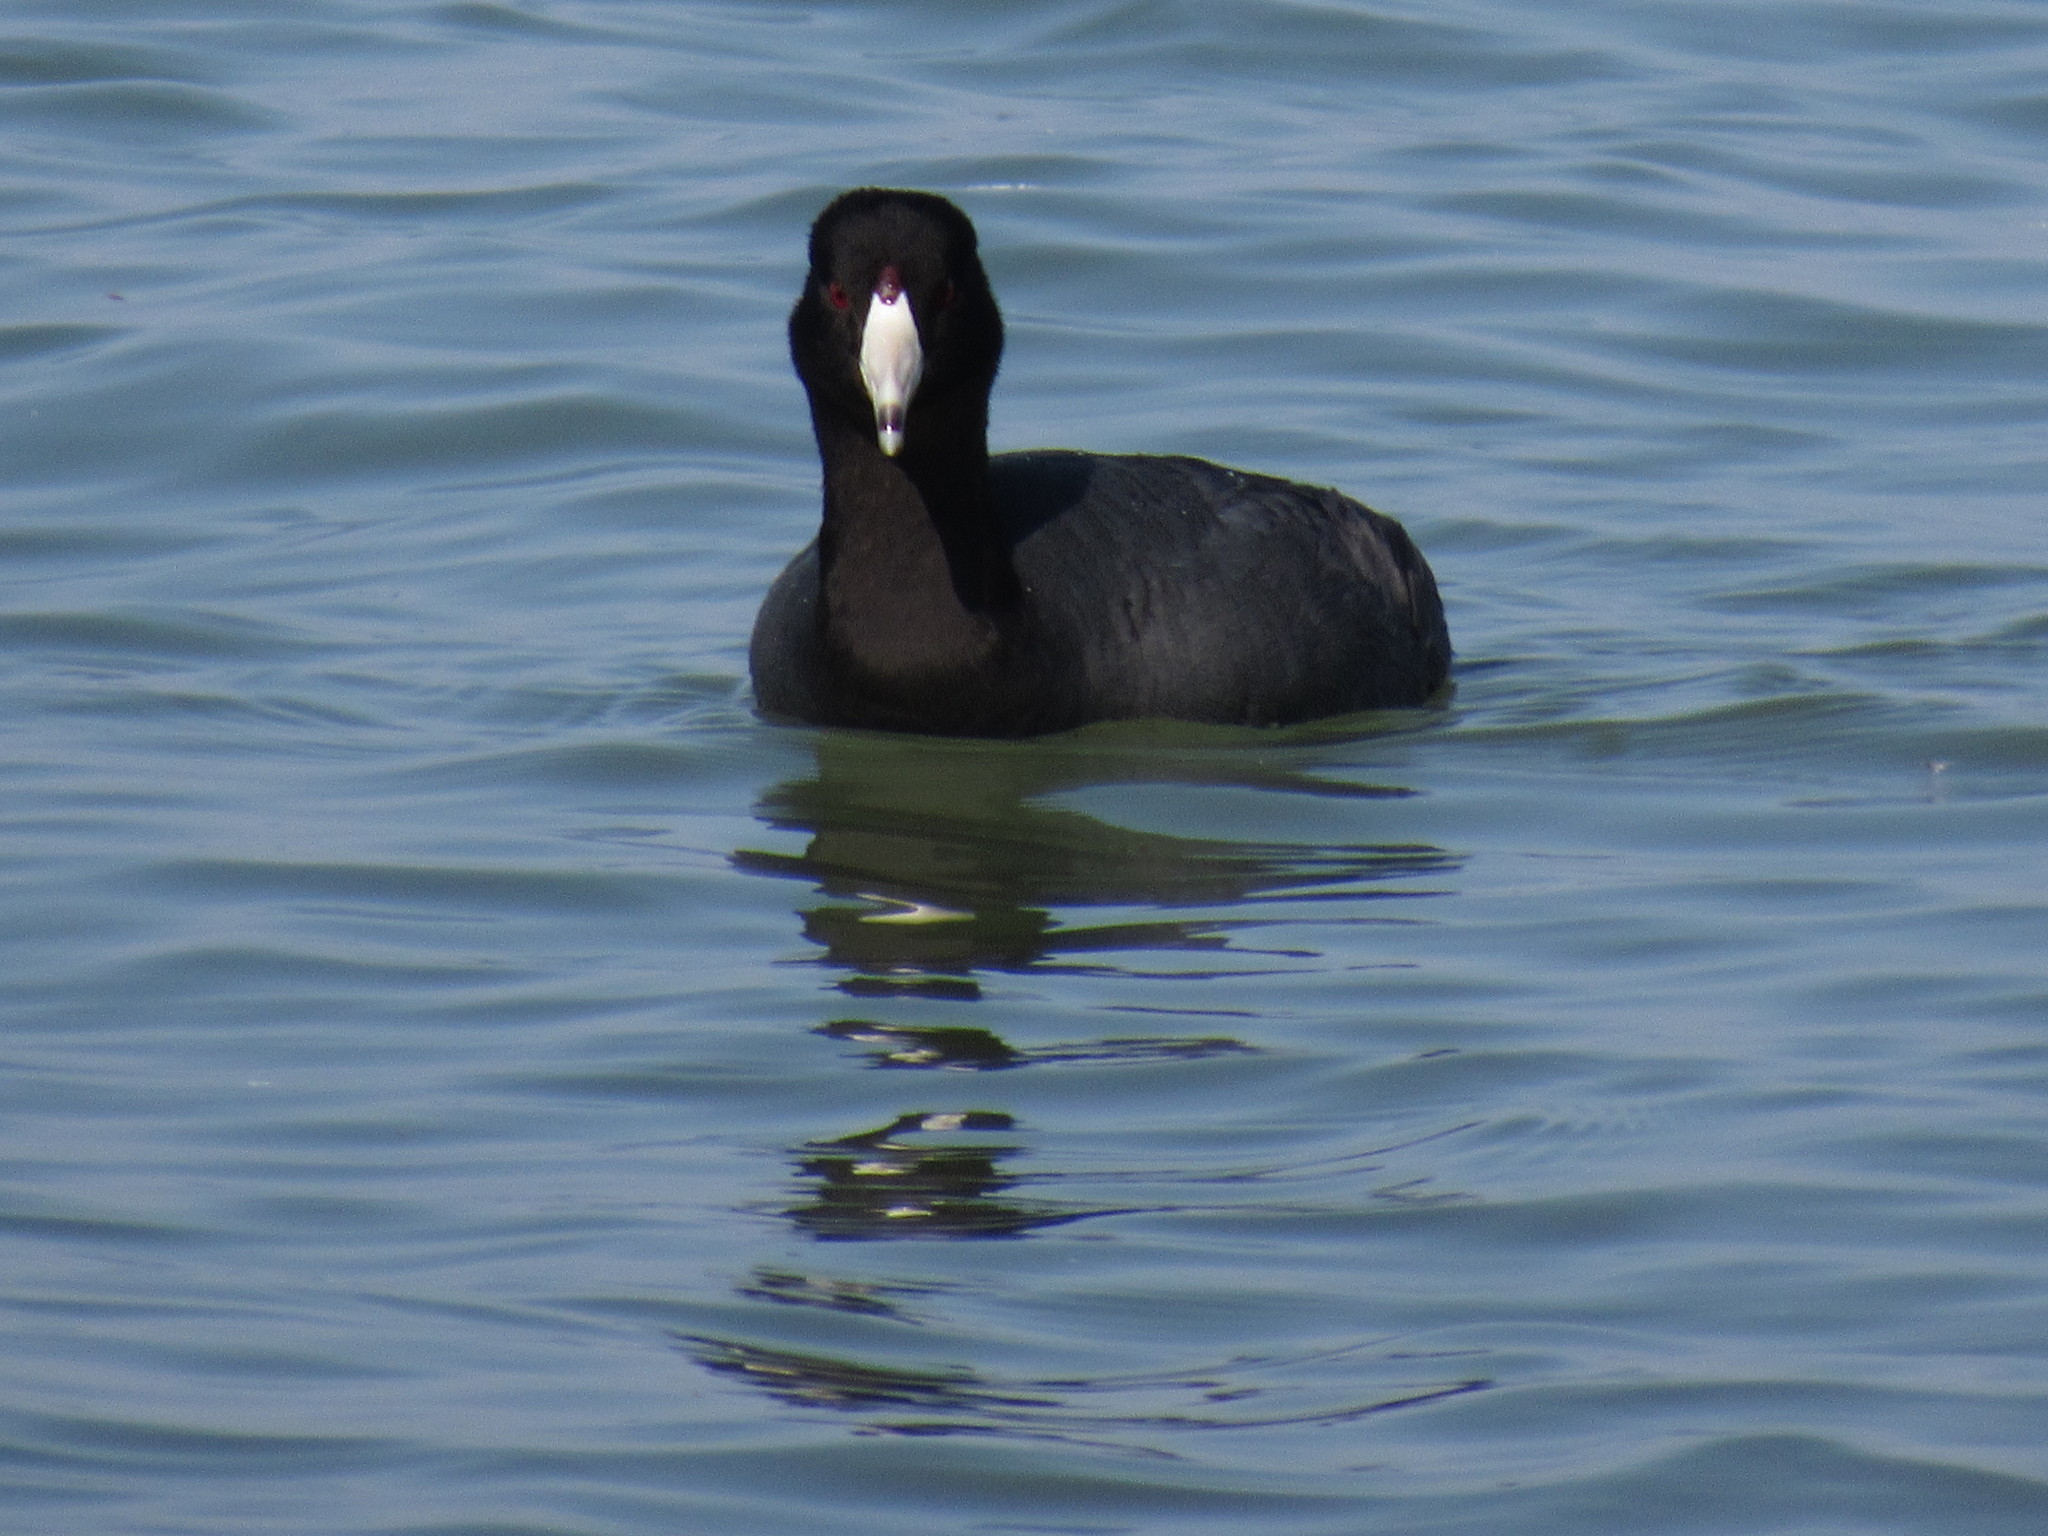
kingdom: Animalia
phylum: Chordata
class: Aves
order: Gruiformes
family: Rallidae
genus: Fulica
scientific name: Fulica americana
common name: American coot
